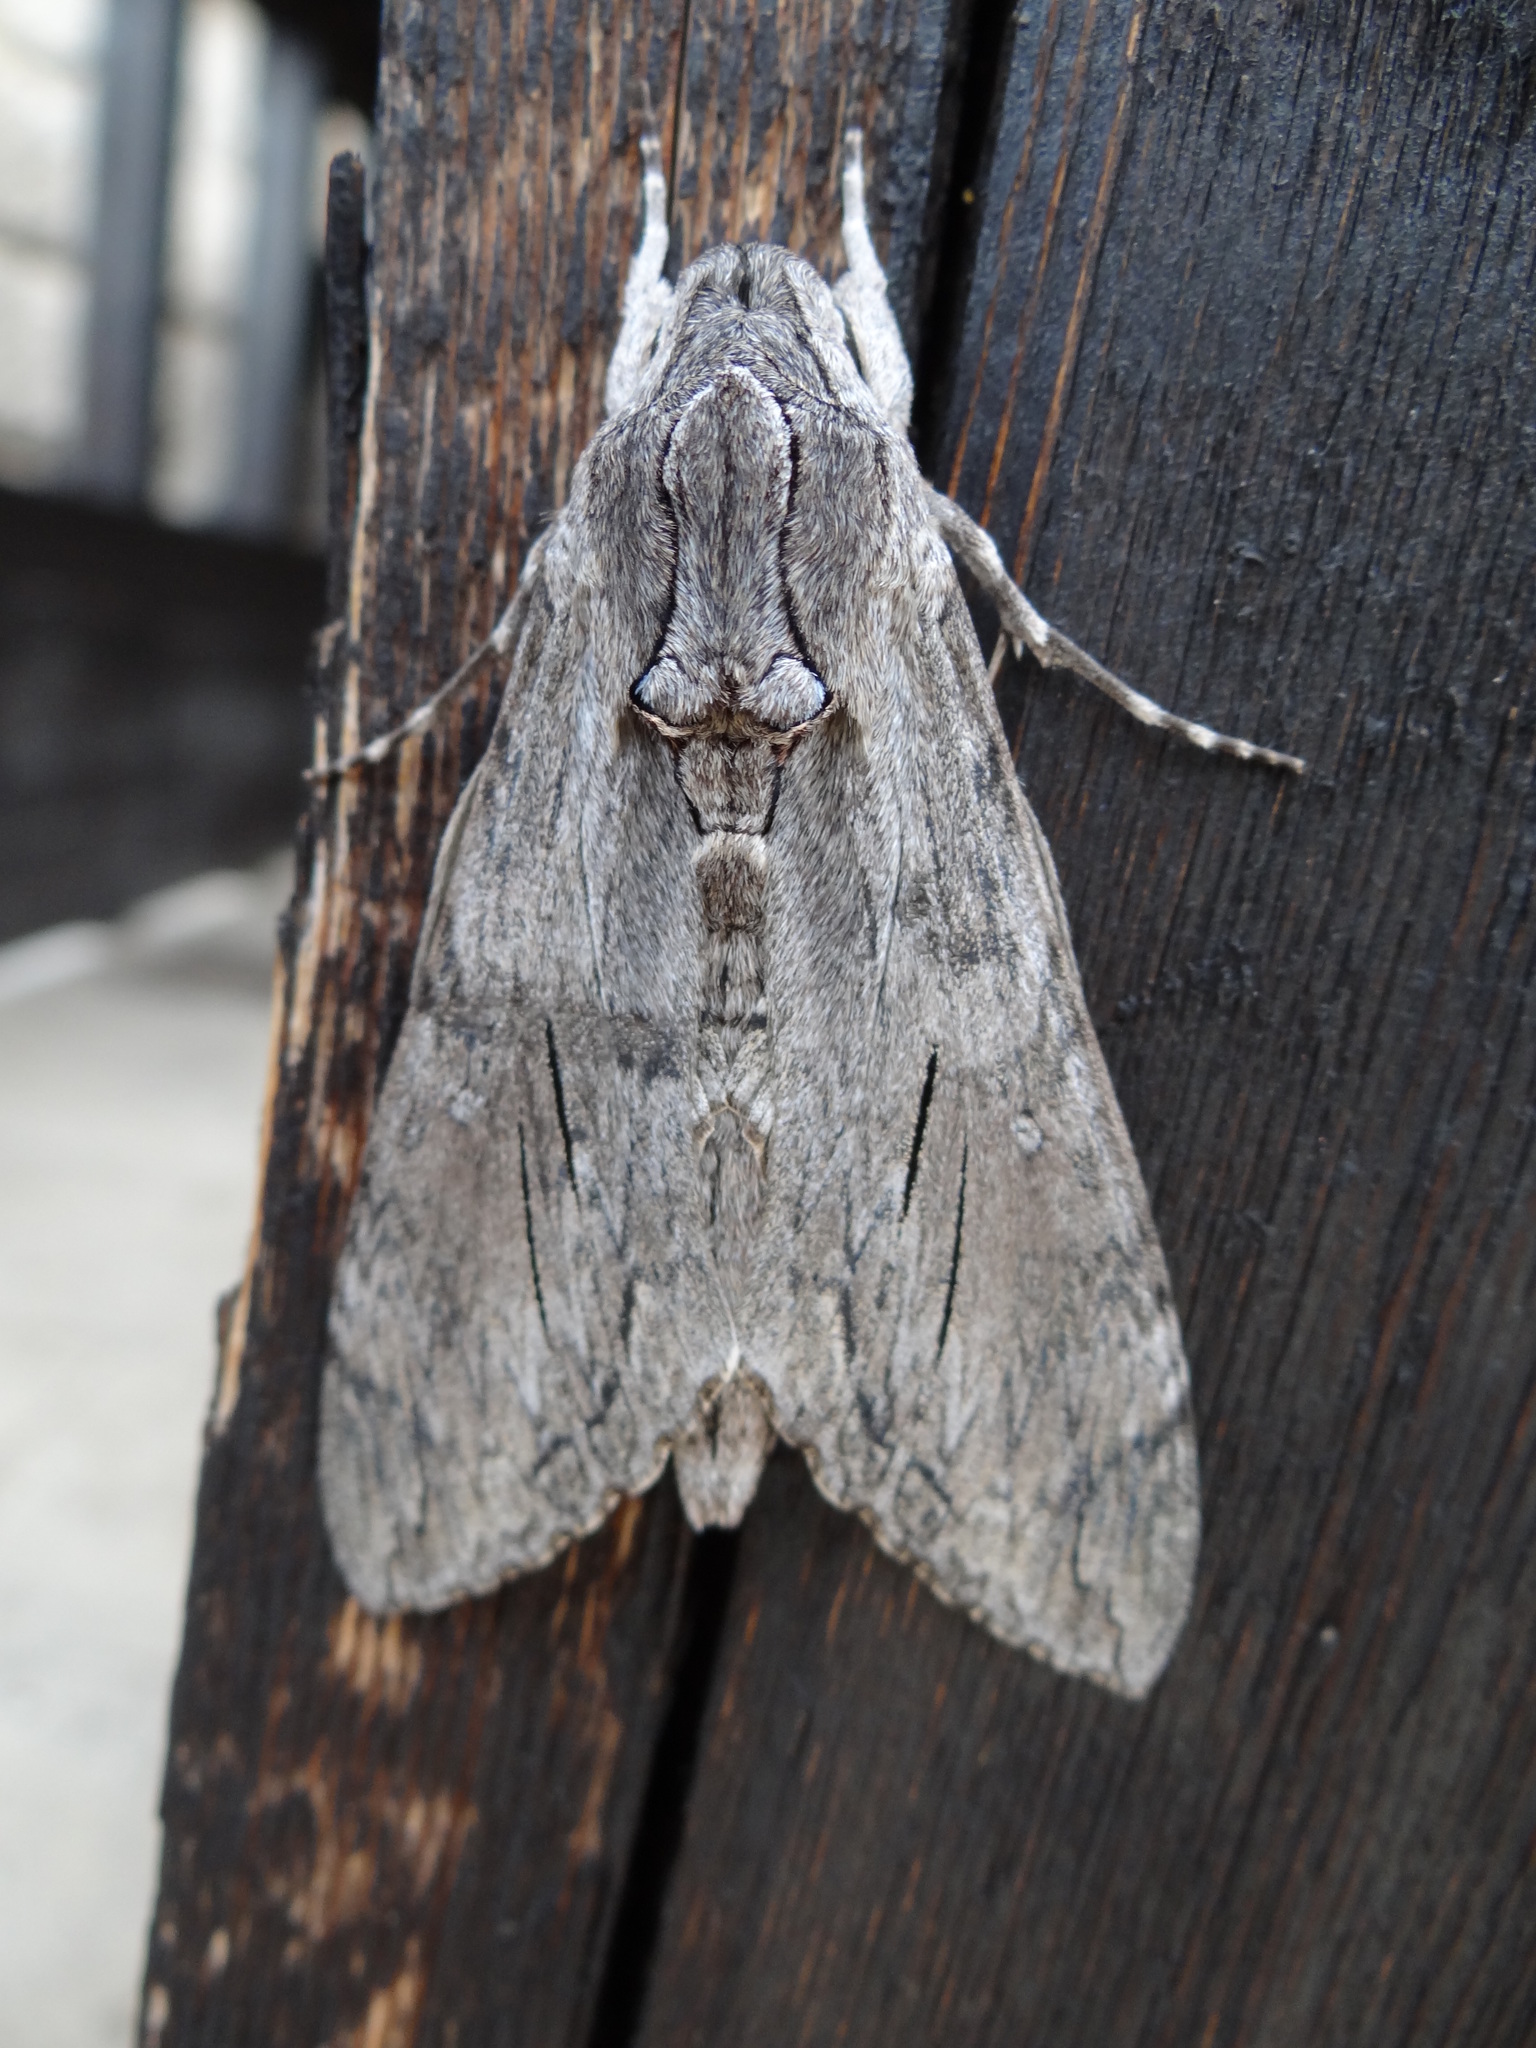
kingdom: Animalia
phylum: Arthropoda
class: Insecta
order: Lepidoptera
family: Sphingidae
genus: Agrius
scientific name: Agrius convolvuli
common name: Convolvulus hawkmoth
